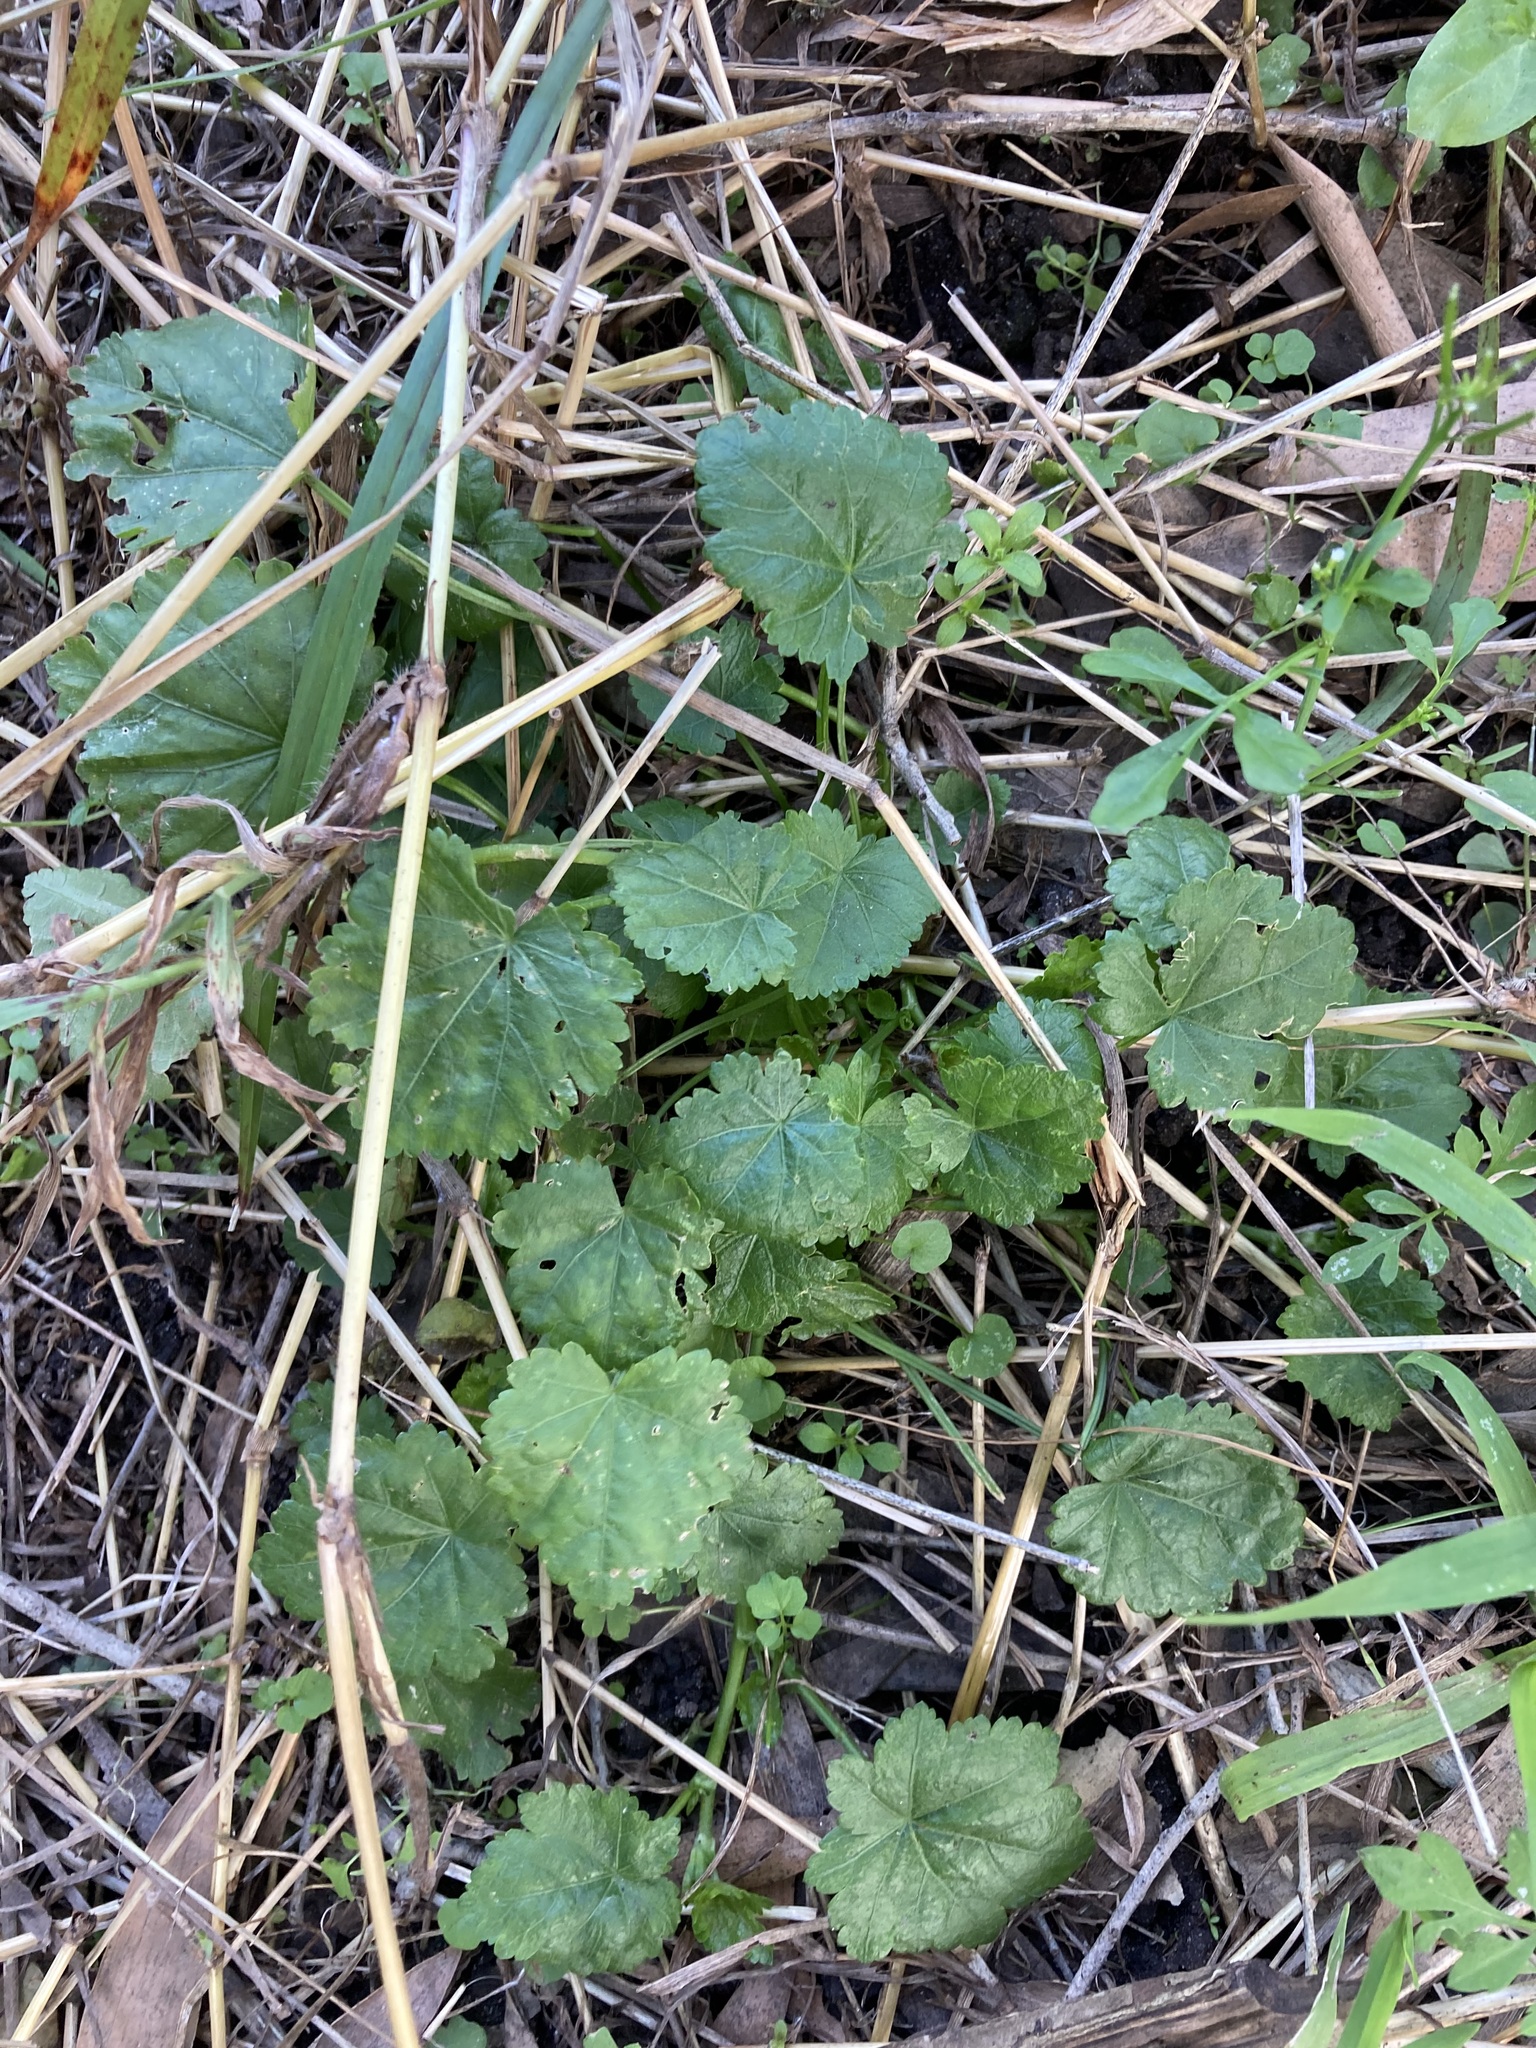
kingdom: Plantae
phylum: Tracheophyta
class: Magnoliopsida
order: Malvales
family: Malvaceae
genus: Modiola
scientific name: Modiola caroliniana
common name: Carolina bristlemallow
